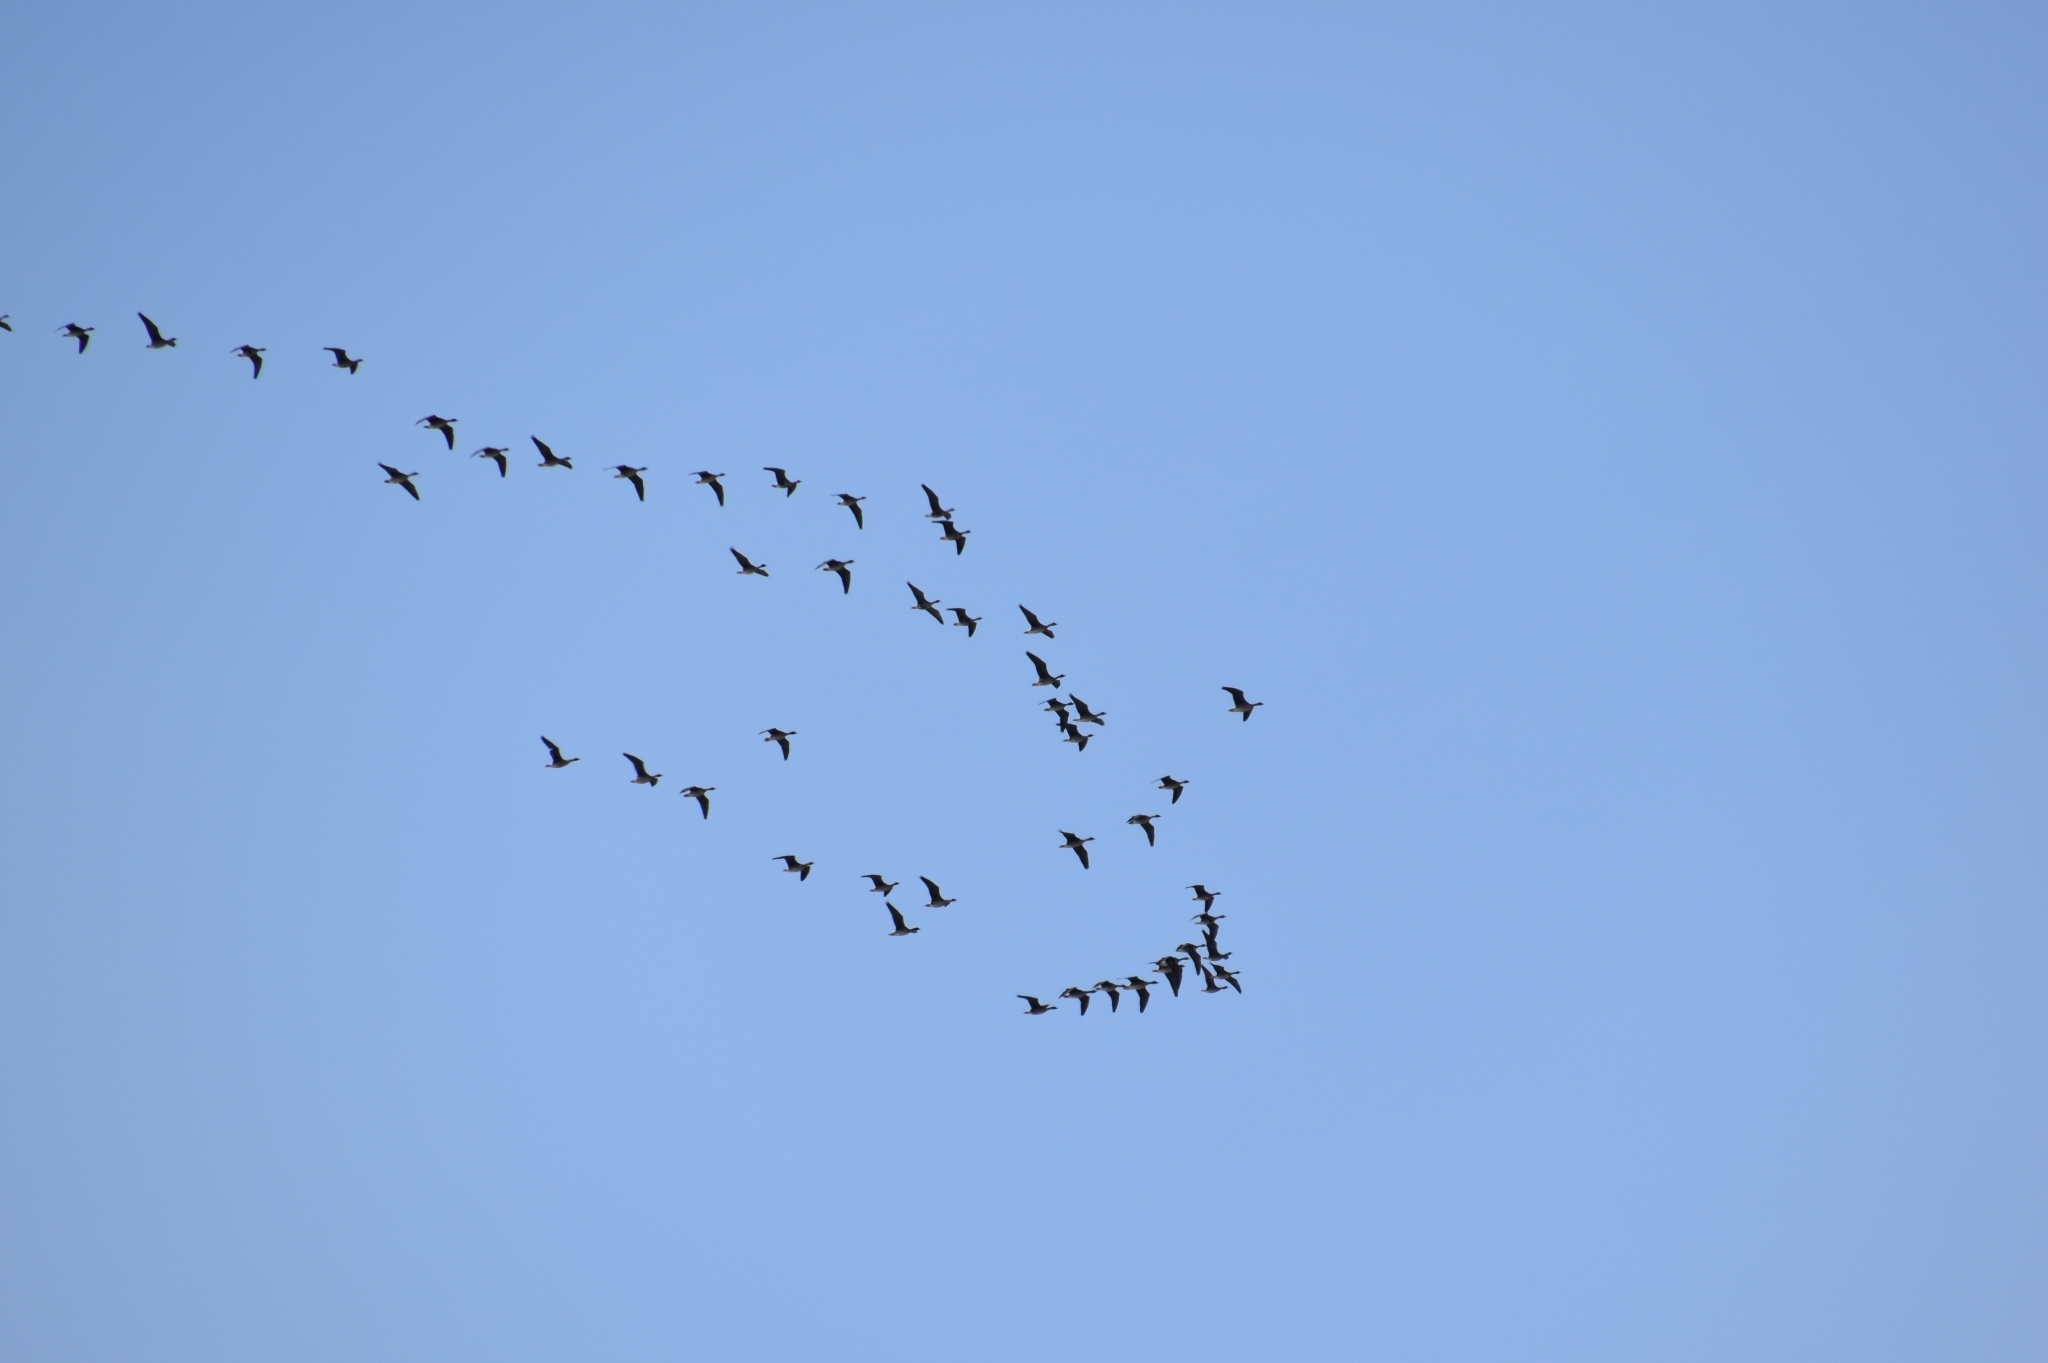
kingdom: Animalia
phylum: Chordata
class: Aves
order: Anseriformes
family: Anatidae
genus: Anser
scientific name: Anser albifrons
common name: Greater white-fronted goose
